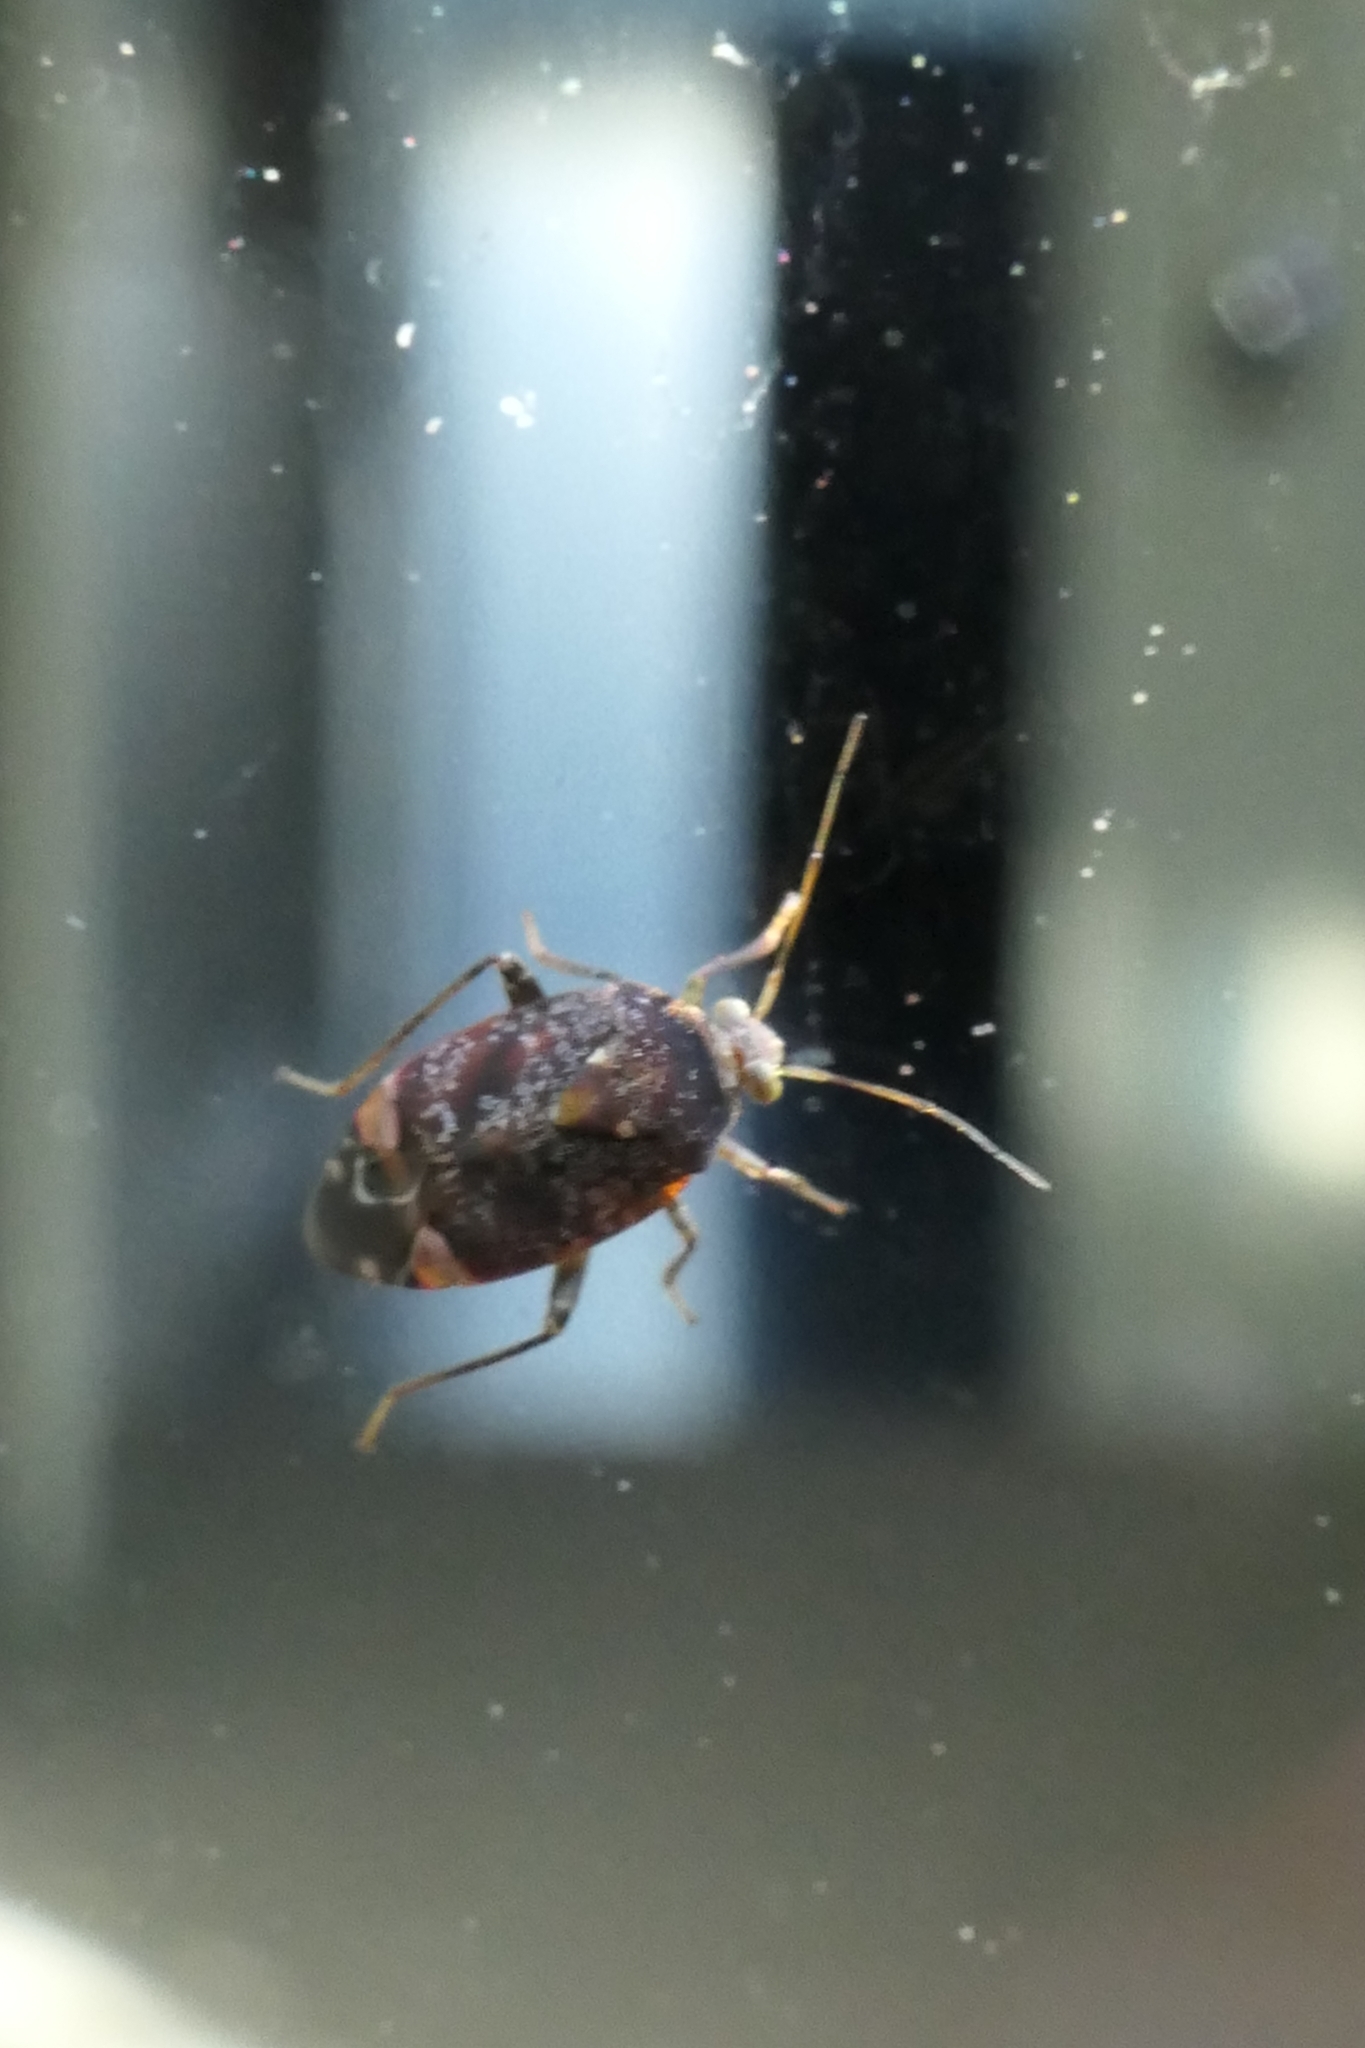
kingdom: Animalia
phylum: Arthropoda
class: Insecta
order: Hemiptera
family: Miridae
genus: Wekamiris
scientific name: Wekamiris auropilosus
